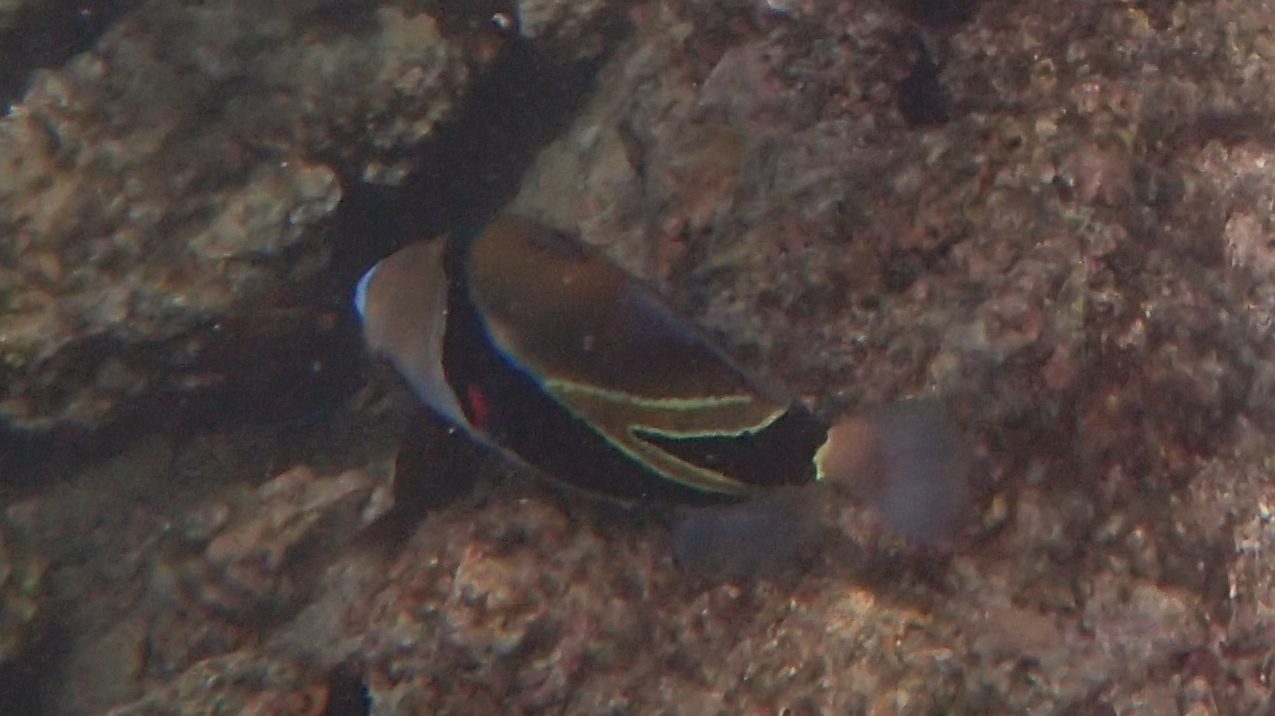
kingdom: Animalia
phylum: Chordata
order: Tetraodontiformes
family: Balistidae
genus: Rhinecanthus
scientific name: Rhinecanthus rectangulus
